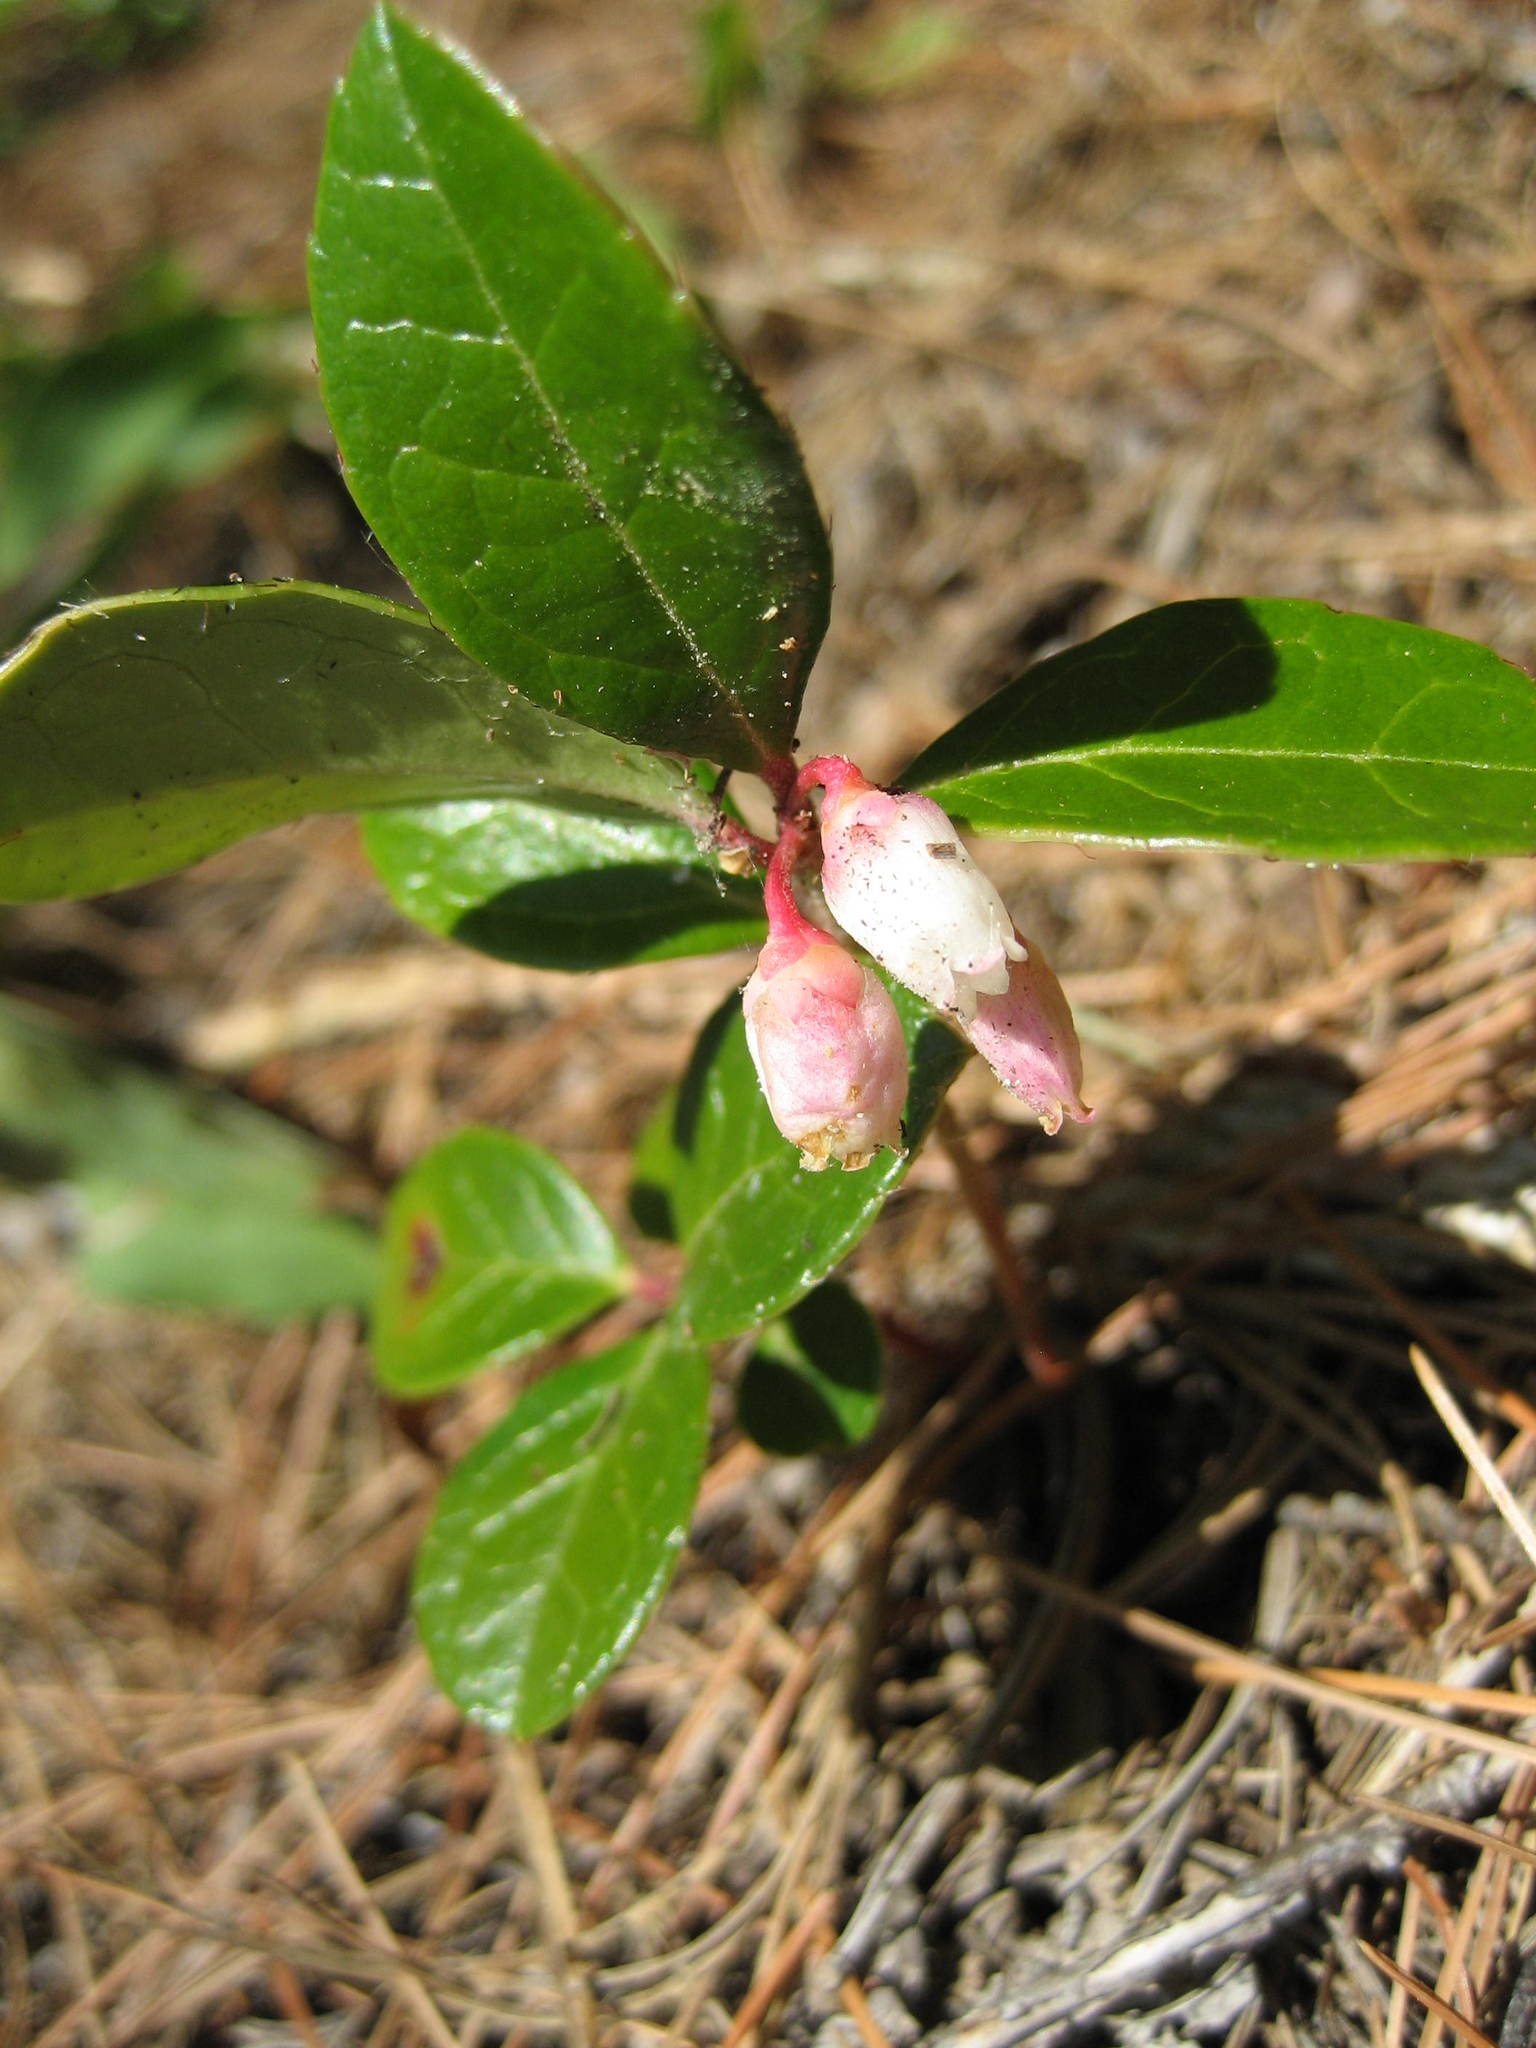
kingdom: Plantae
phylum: Tracheophyta
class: Magnoliopsida
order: Ericales
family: Ericaceae
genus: Gaultheria
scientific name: Gaultheria procumbens
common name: Checkerberry
